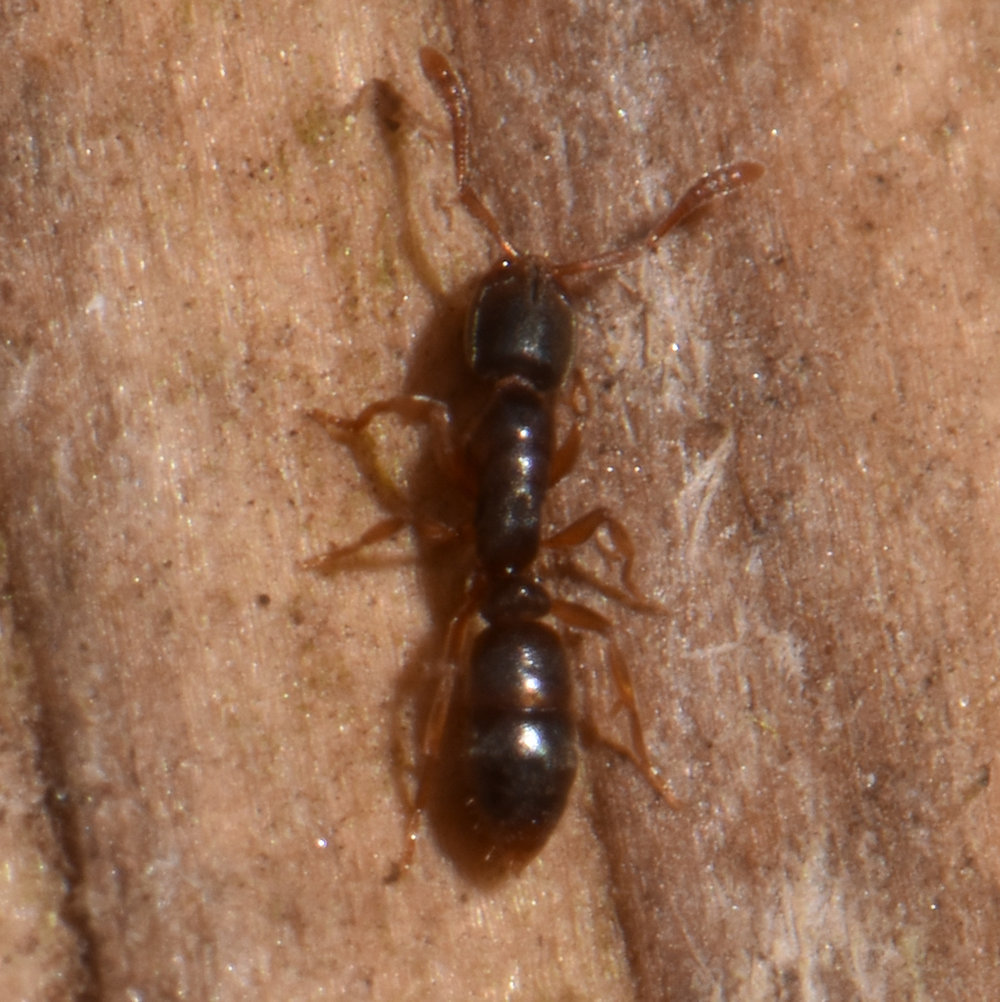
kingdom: Animalia
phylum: Arthropoda
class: Insecta
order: Hymenoptera
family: Formicidae
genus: Ponera
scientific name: Ponera pennsylvanica
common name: Pennsylvania ponera
